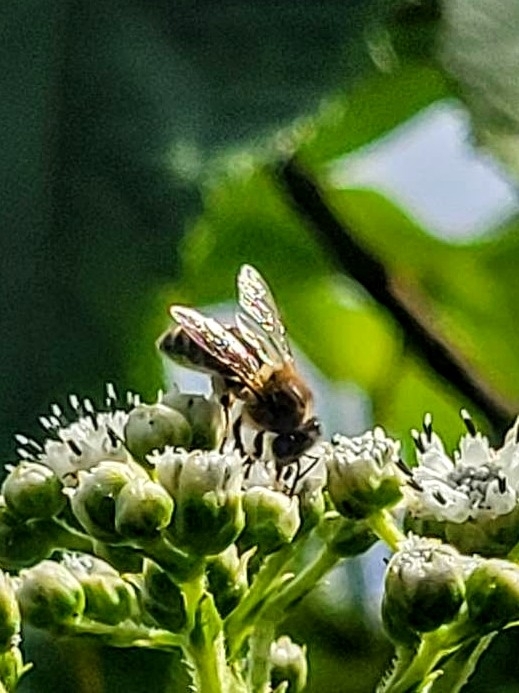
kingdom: Animalia
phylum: Arthropoda
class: Insecta
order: Hymenoptera
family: Apidae
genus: Apis
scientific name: Apis mellifera
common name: Honey bee
